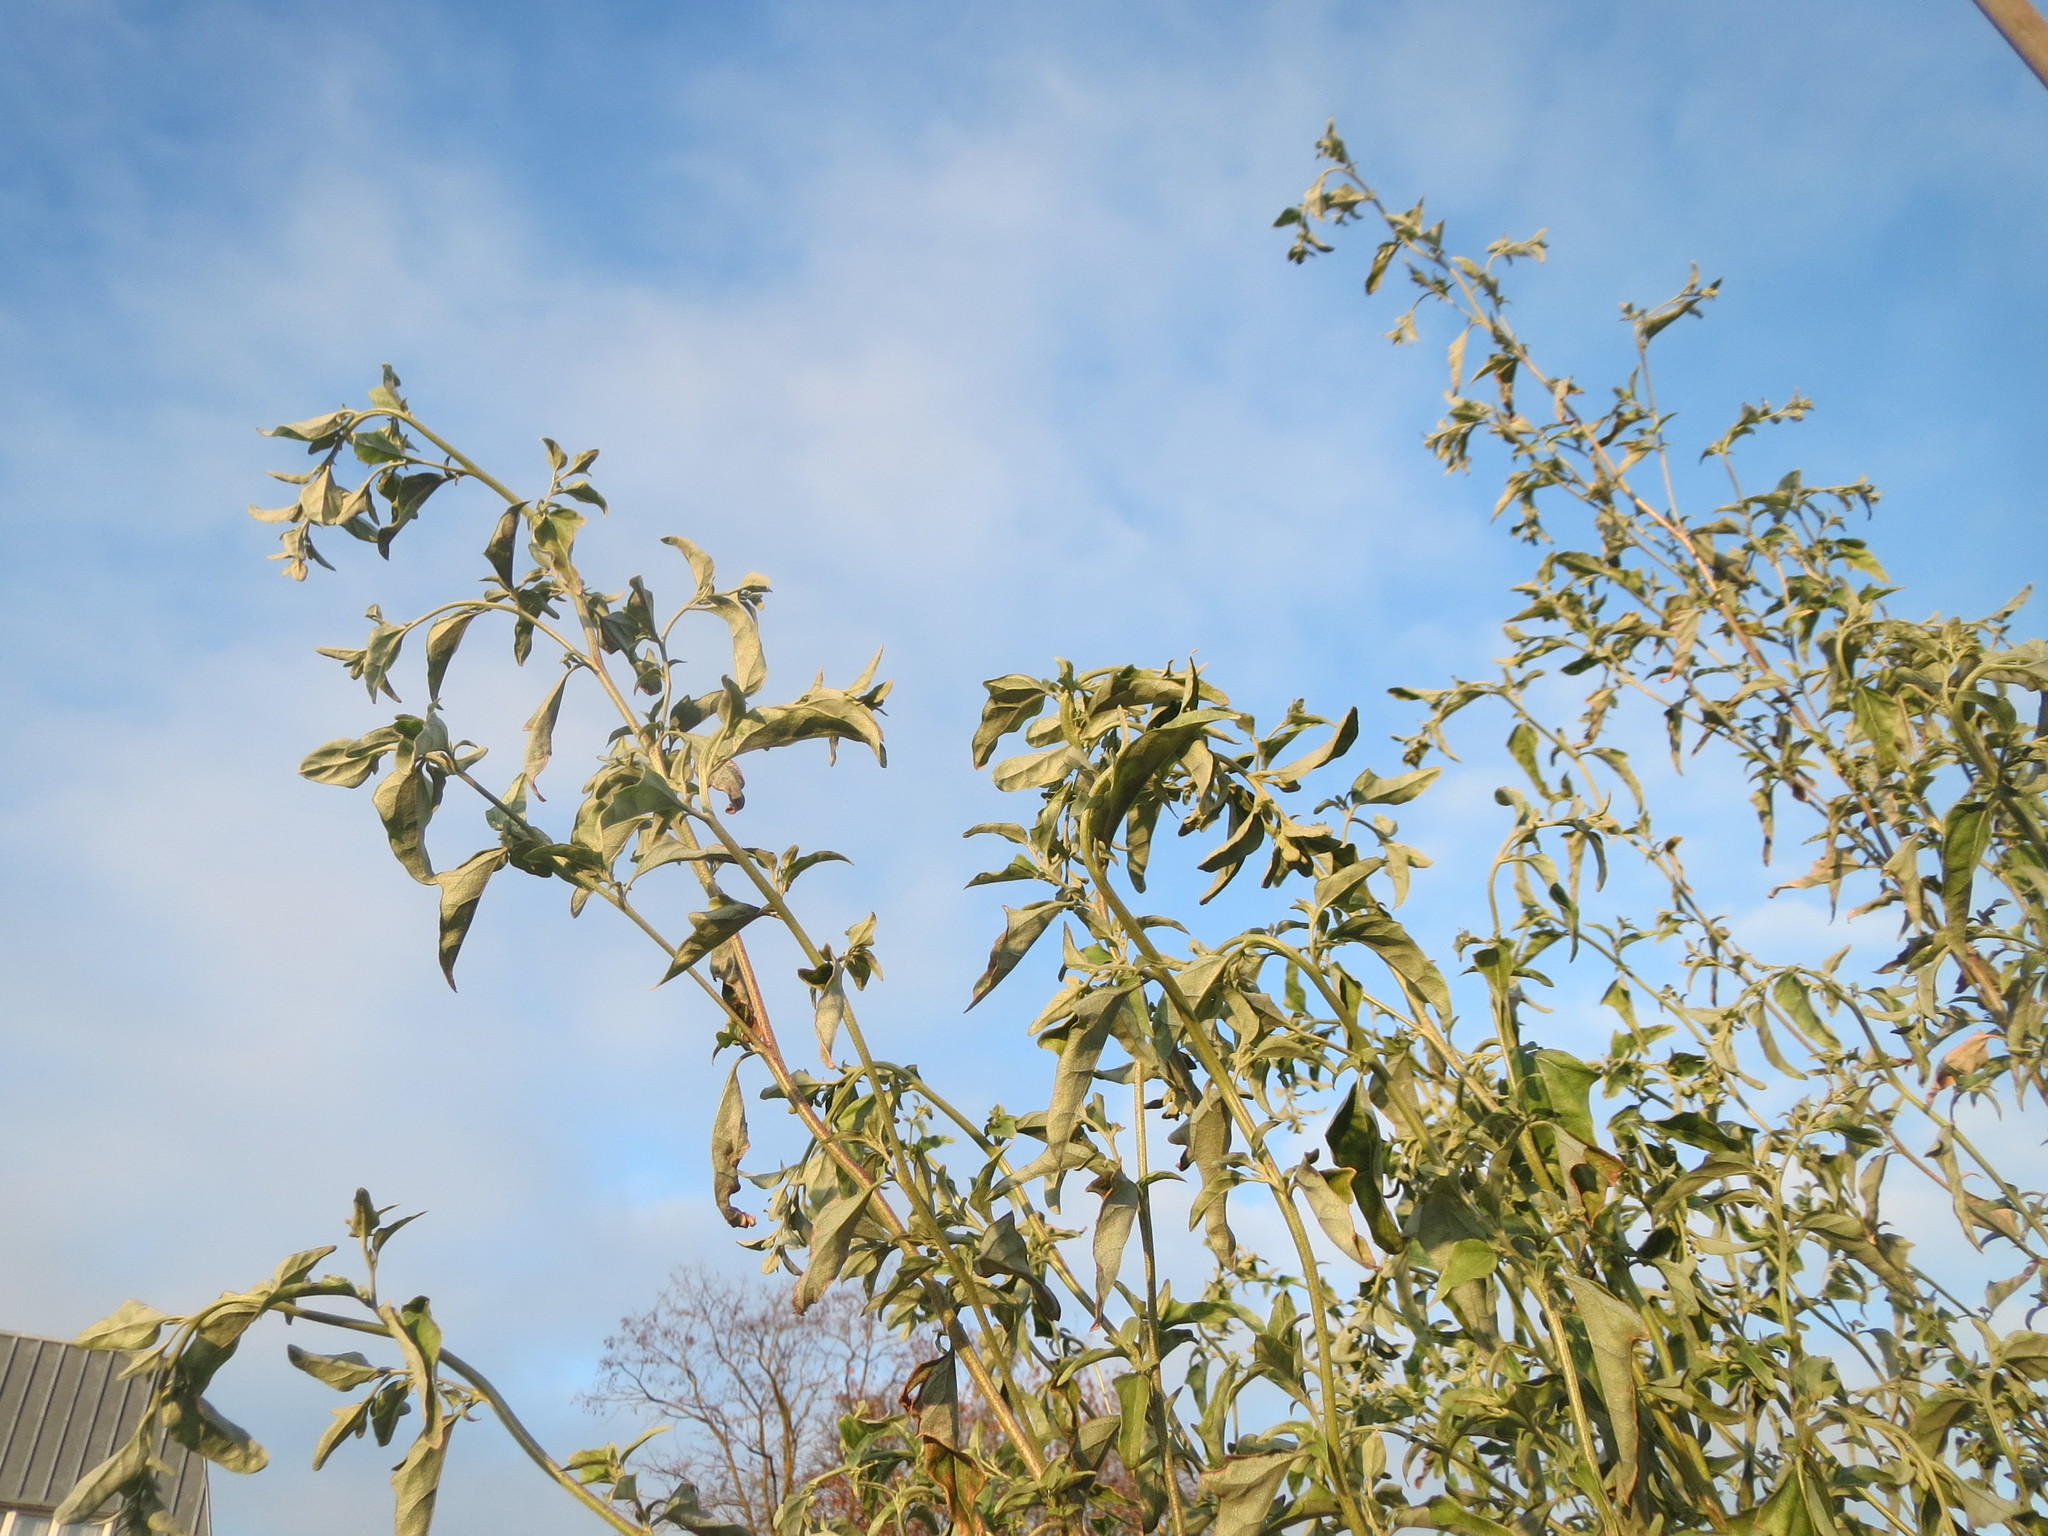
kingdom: Plantae
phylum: Tracheophyta
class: Magnoliopsida
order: Caryophyllales
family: Amaranthaceae
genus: Atriplex
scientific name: Atriplex sagittata
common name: Purple orache
